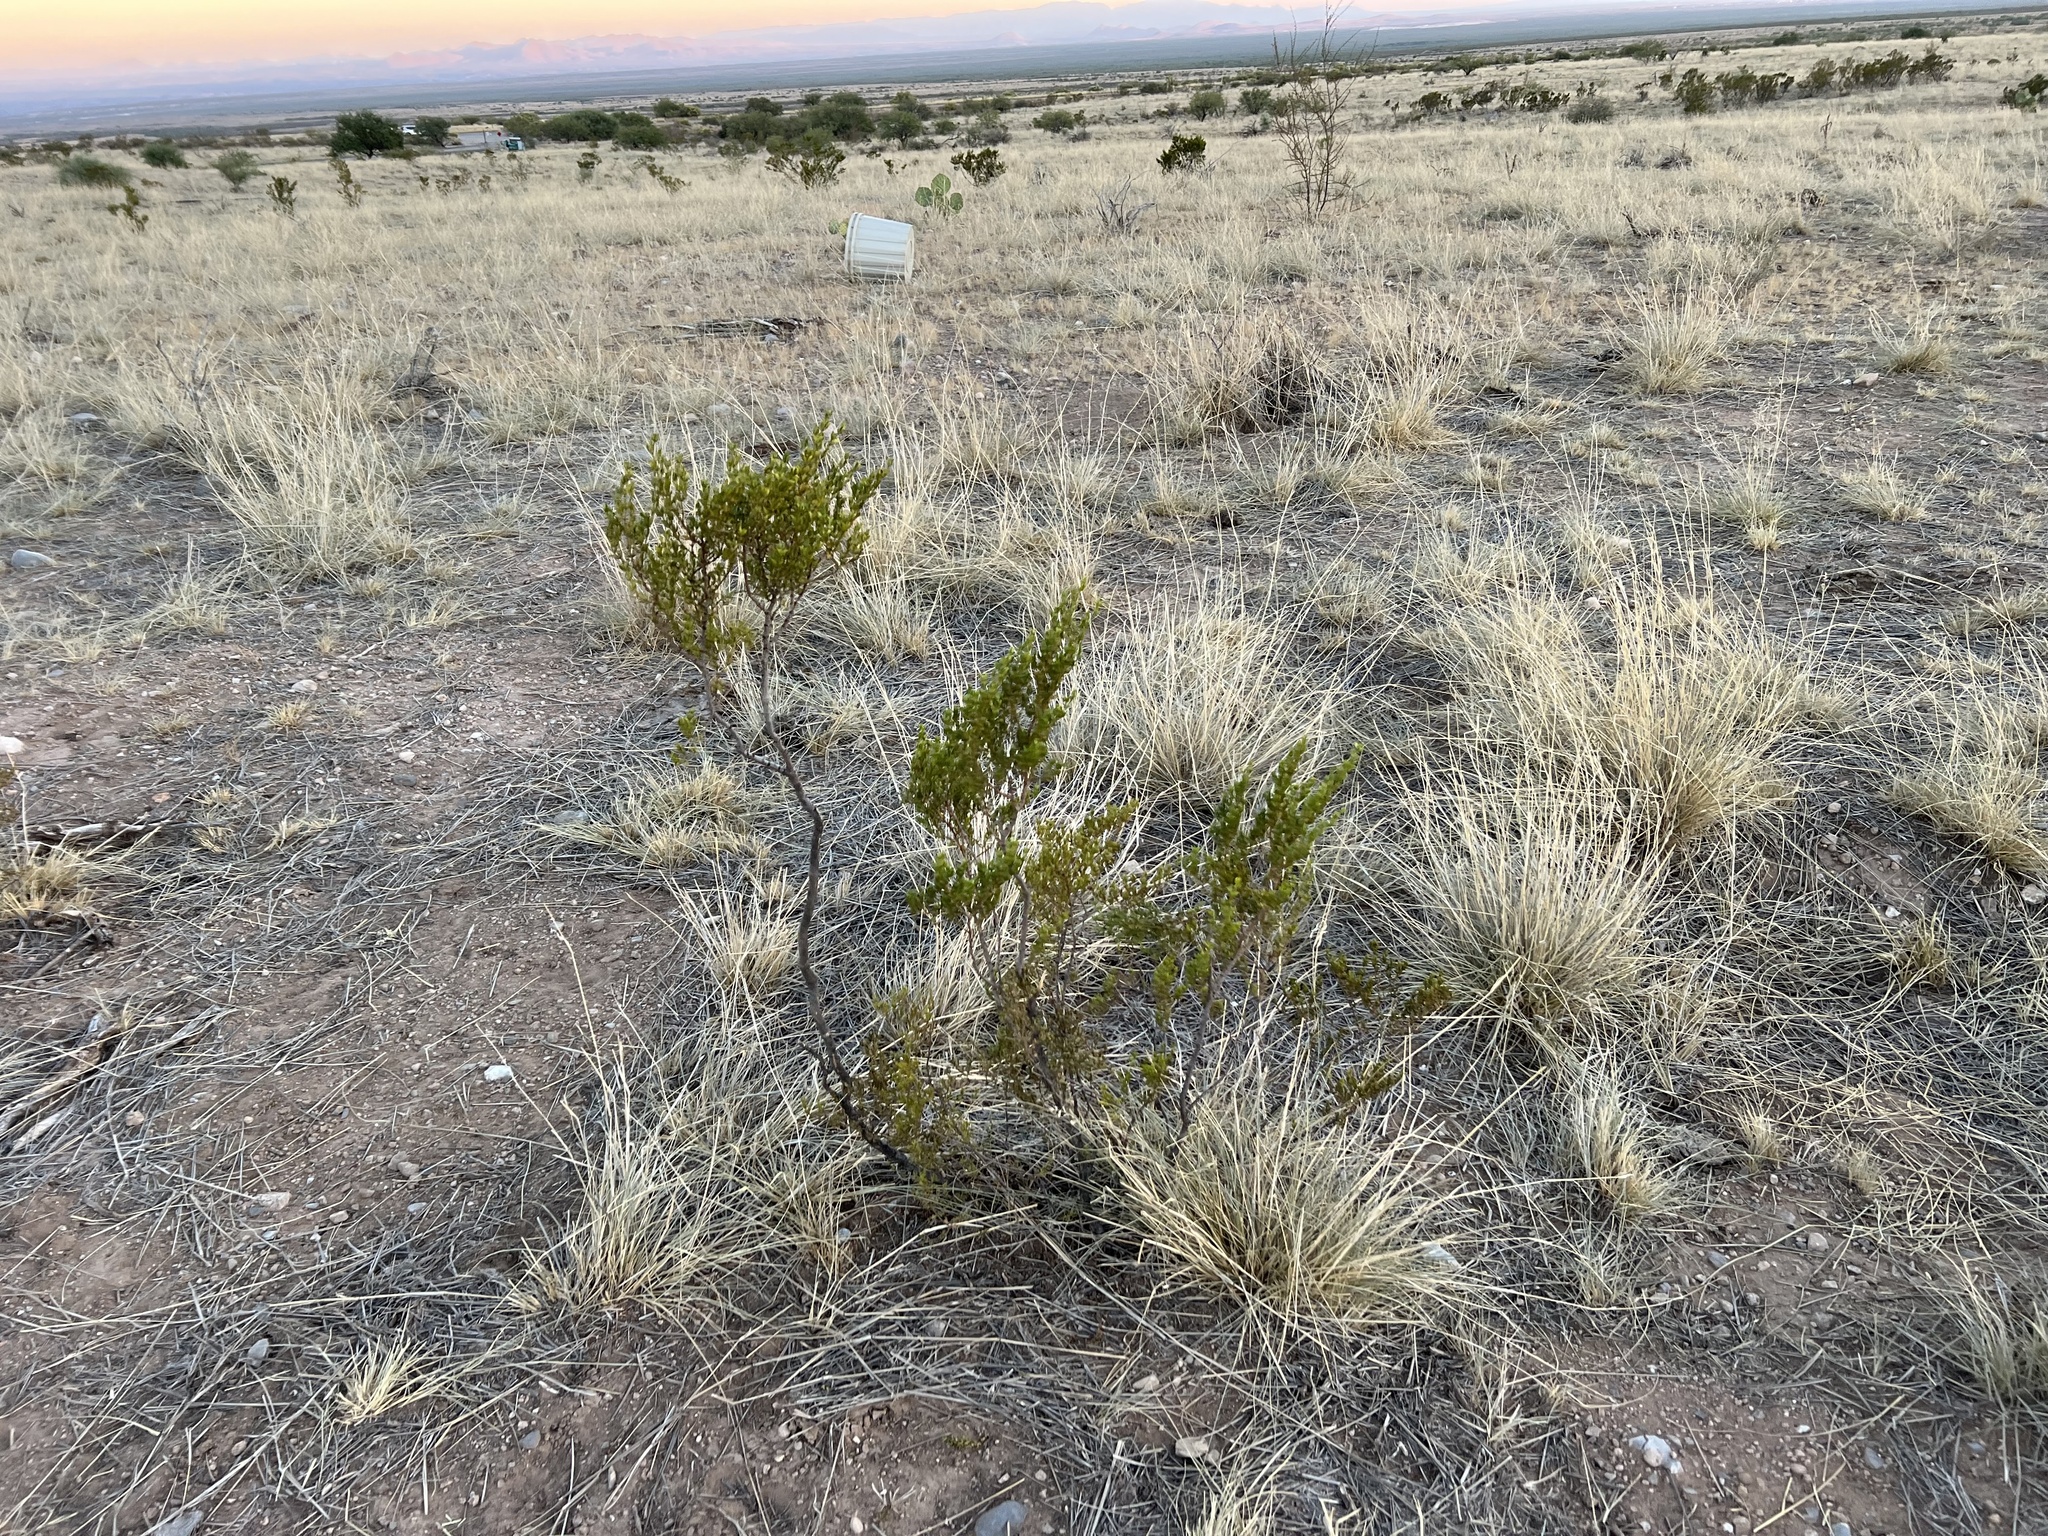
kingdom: Plantae
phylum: Tracheophyta
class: Magnoliopsida
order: Zygophyllales
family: Zygophyllaceae
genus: Larrea
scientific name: Larrea tridentata
